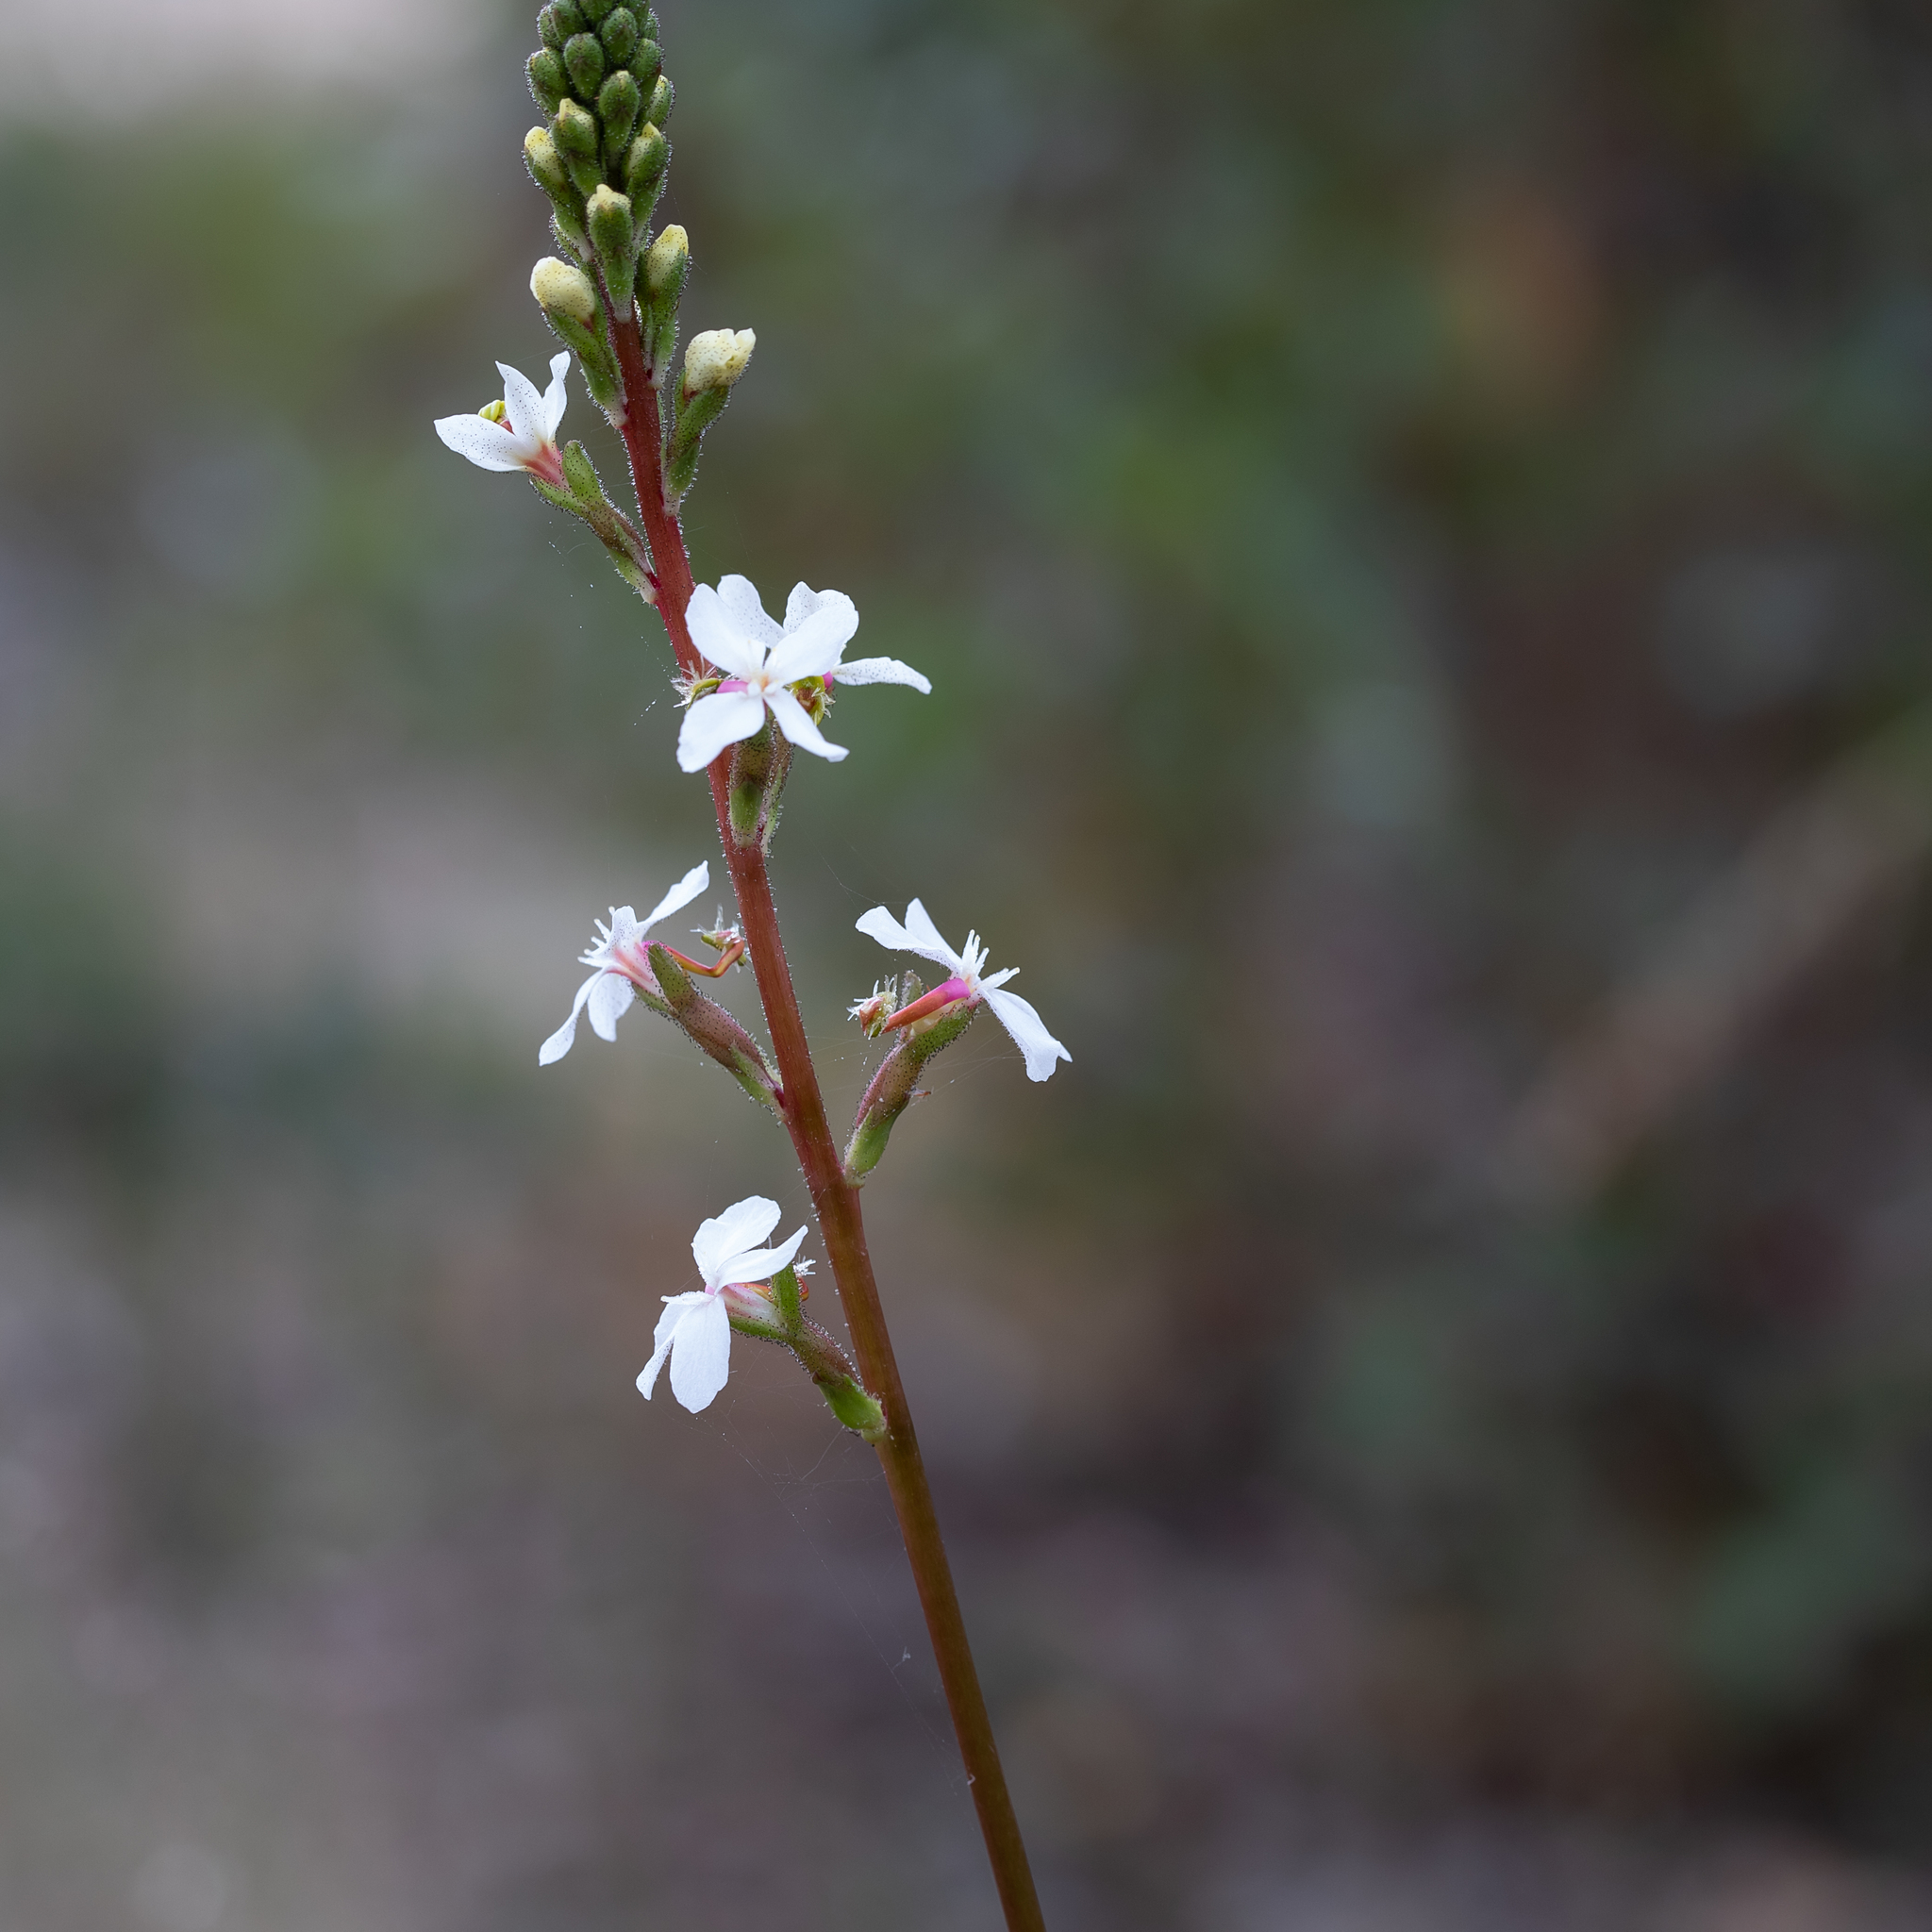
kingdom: Plantae
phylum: Tracheophyta
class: Magnoliopsida
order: Asterales
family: Stylidiaceae
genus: Stylidium
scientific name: Stylidium armeria
